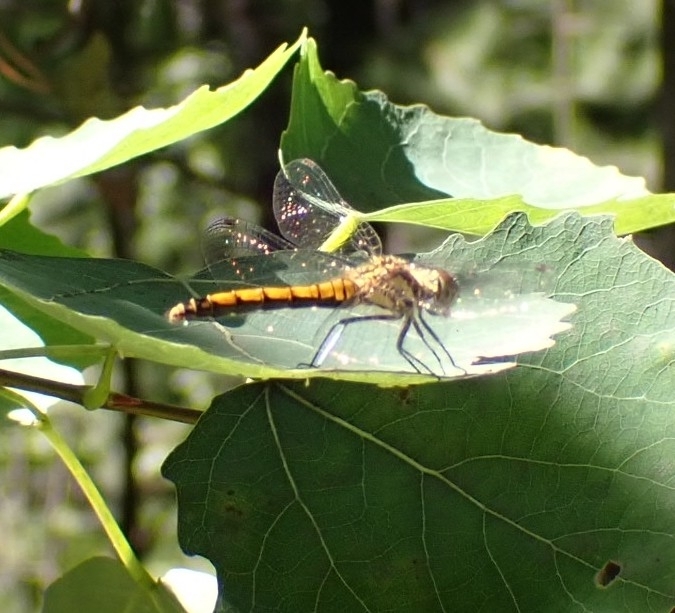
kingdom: Animalia
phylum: Arthropoda
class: Insecta
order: Odonata
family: Libellulidae
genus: Sympetrum
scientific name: Sympetrum danae
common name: Black darter
